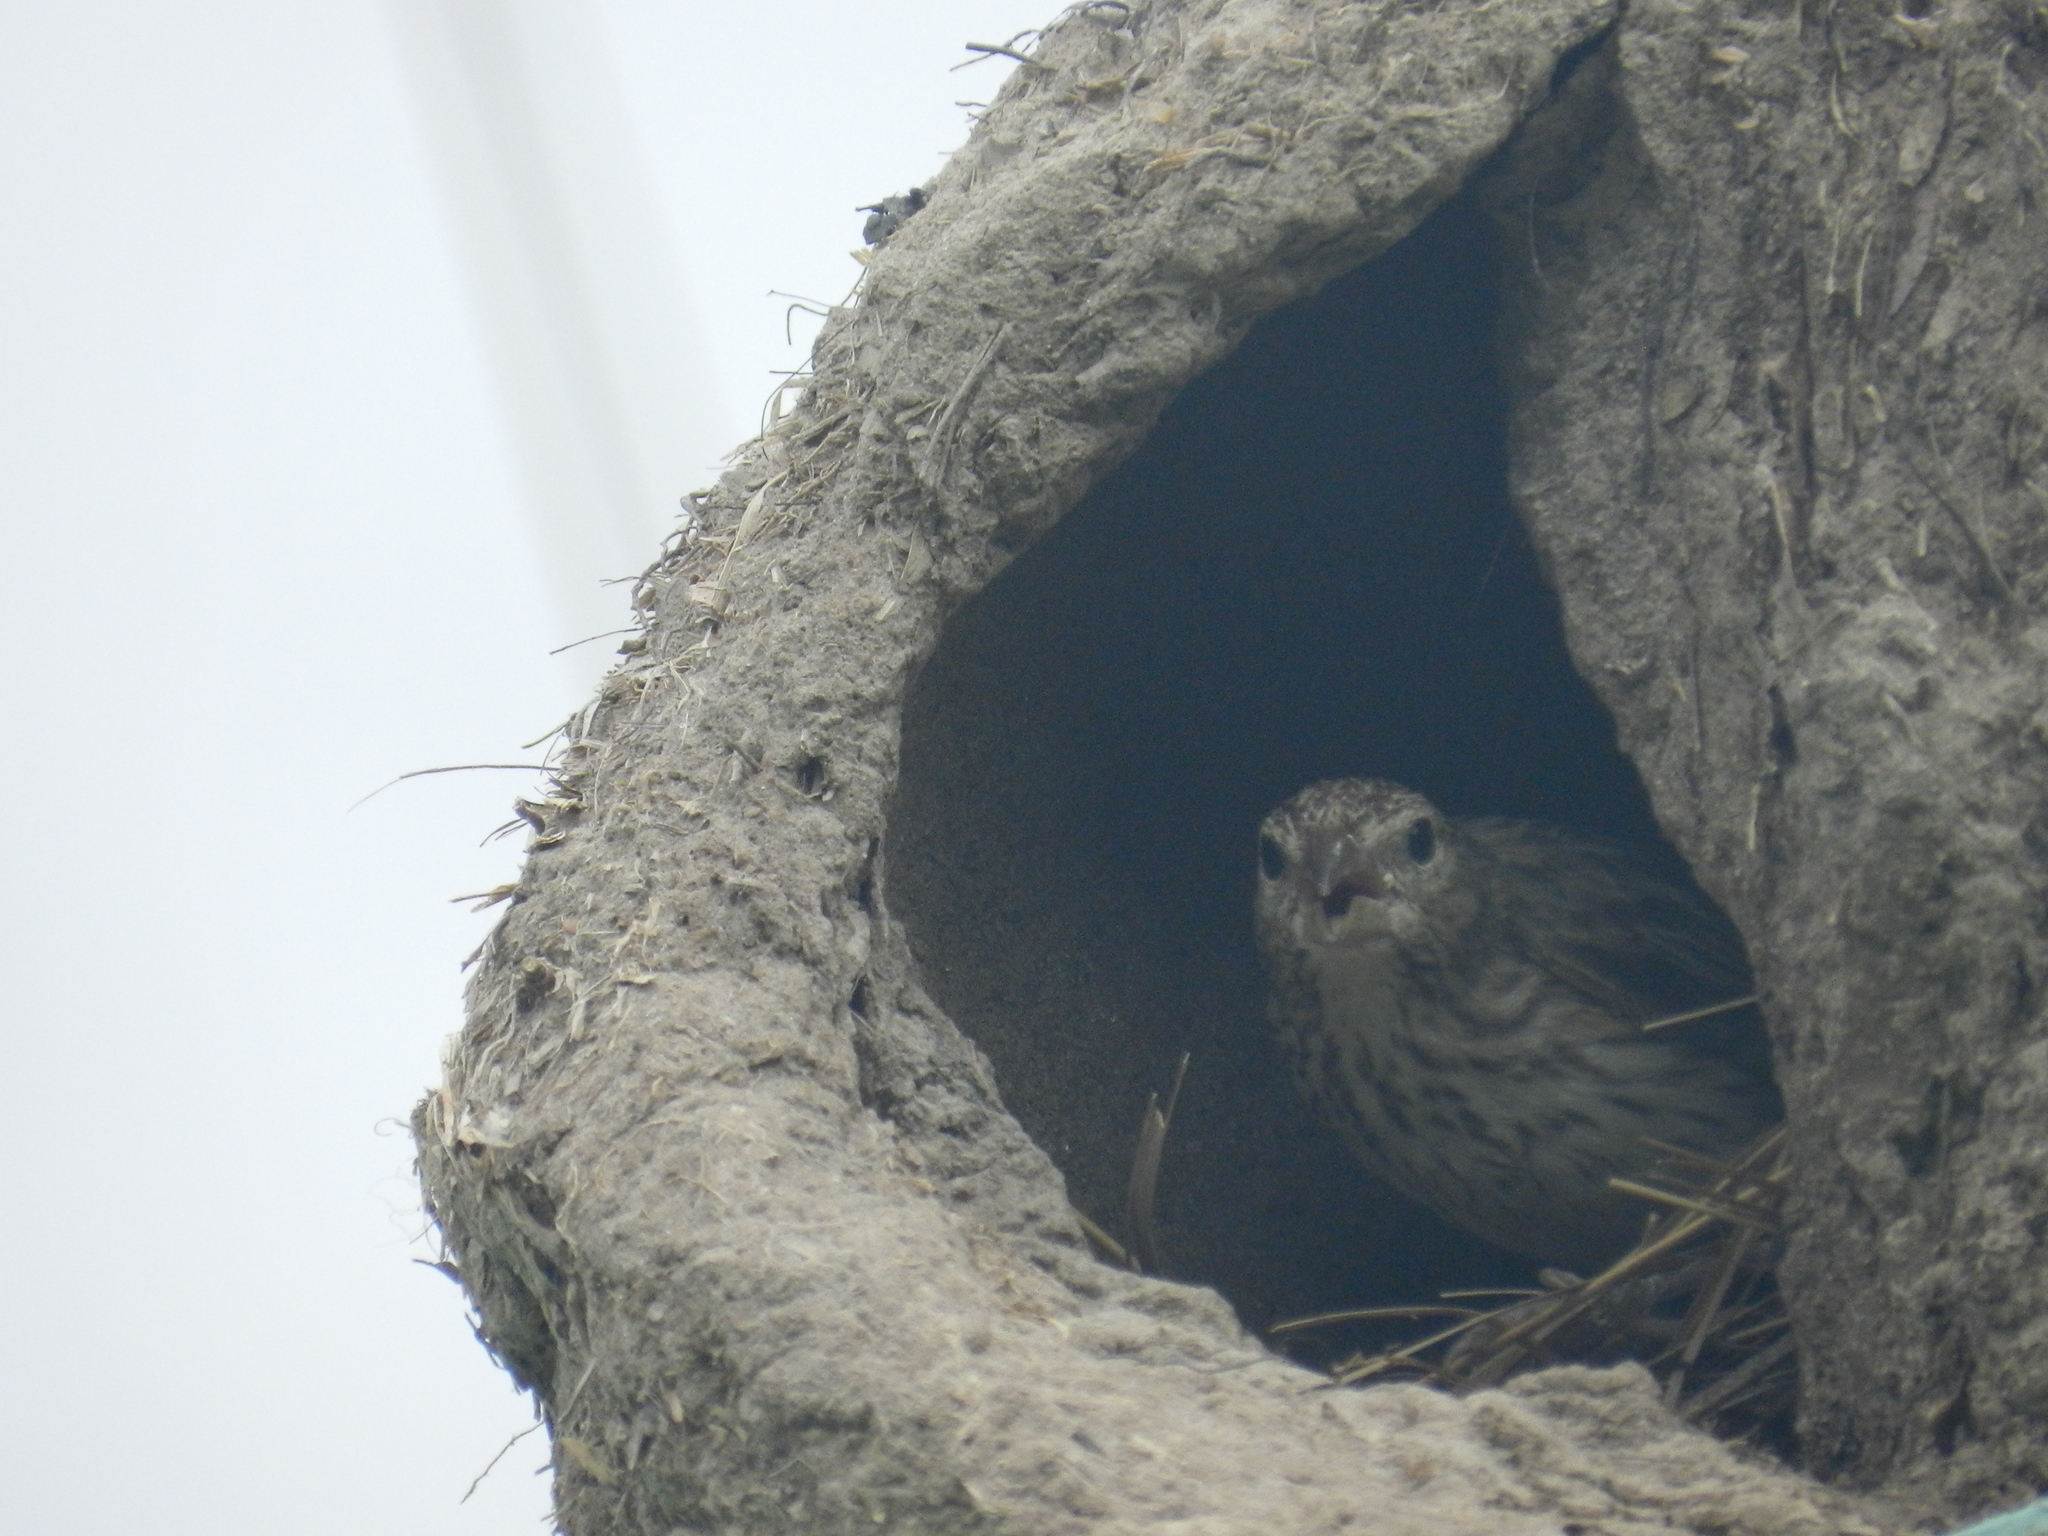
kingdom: Animalia
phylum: Chordata
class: Aves
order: Passeriformes
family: Thraupidae
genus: Sicalis
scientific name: Sicalis flaveola
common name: Saffron finch
